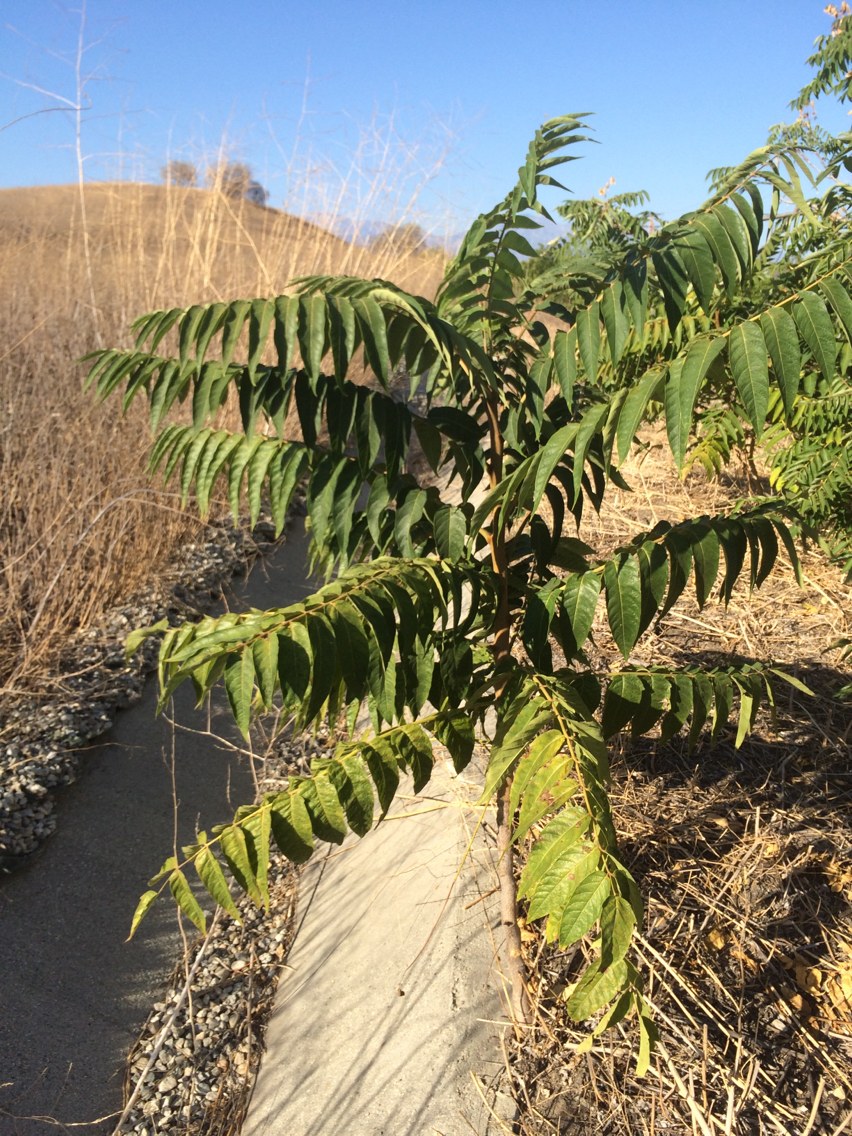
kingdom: Plantae
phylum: Tracheophyta
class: Magnoliopsida
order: Sapindales
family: Simaroubaceae
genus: Ailanthus
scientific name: Ailanthus altissima
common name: Tree-of-heaven
